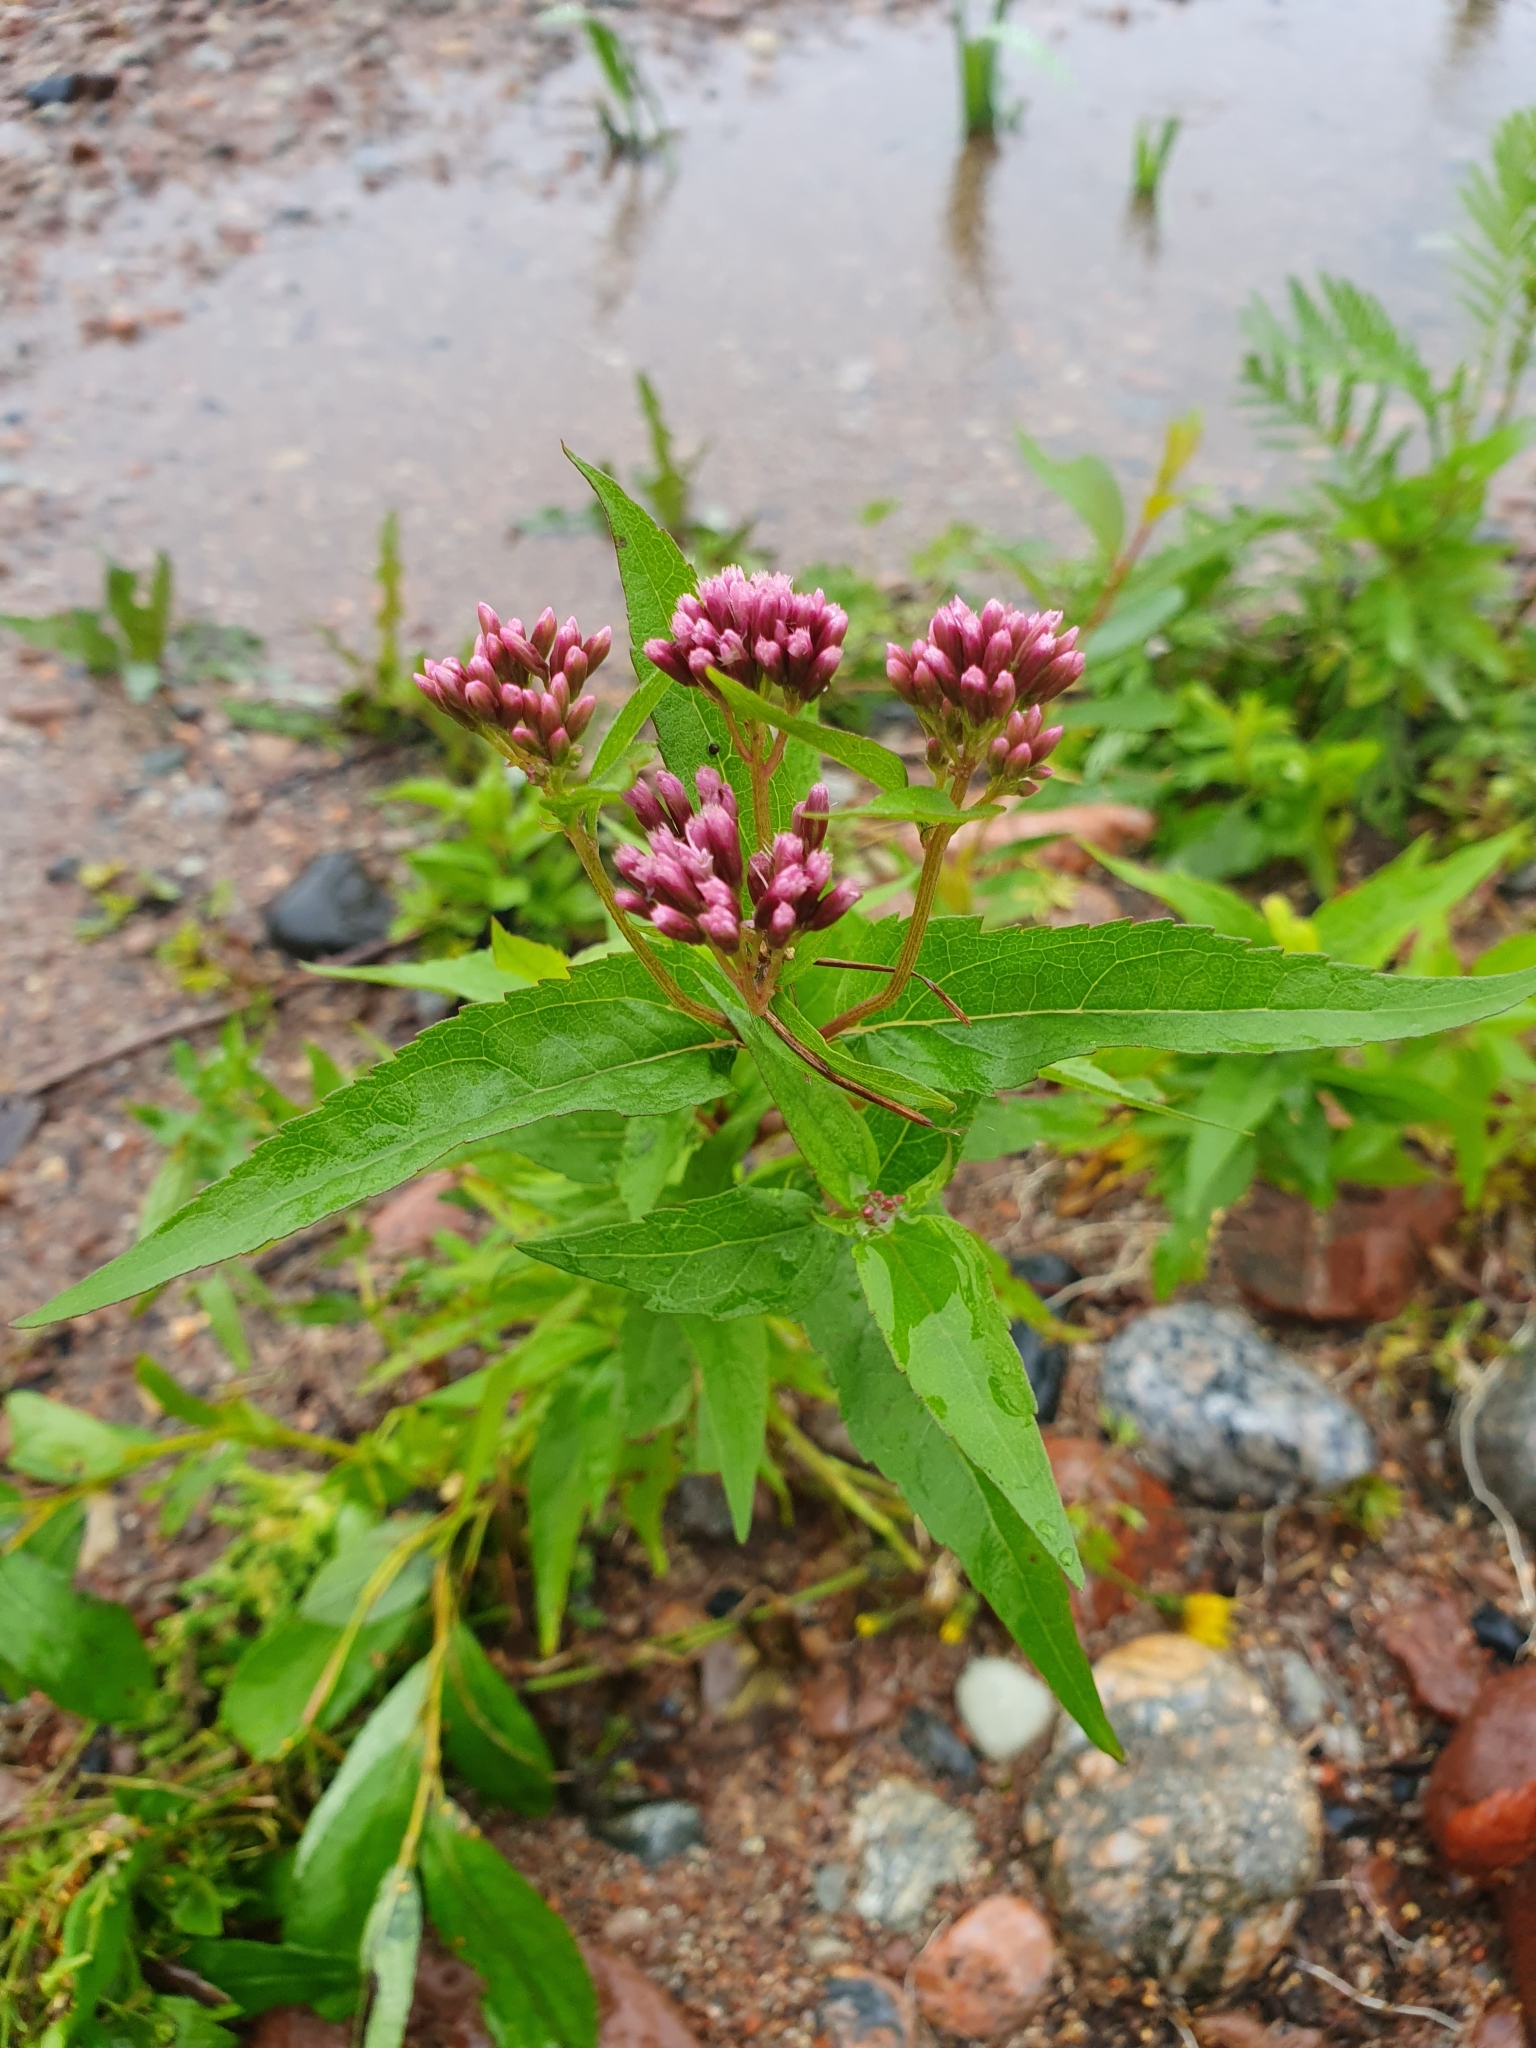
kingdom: Plantae
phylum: Tracheophyta
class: Magnoliopsida
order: Asterales
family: Asteraceae
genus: Eupatorium
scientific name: Eupatorium cannabinum
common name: Hemp-agrimony
